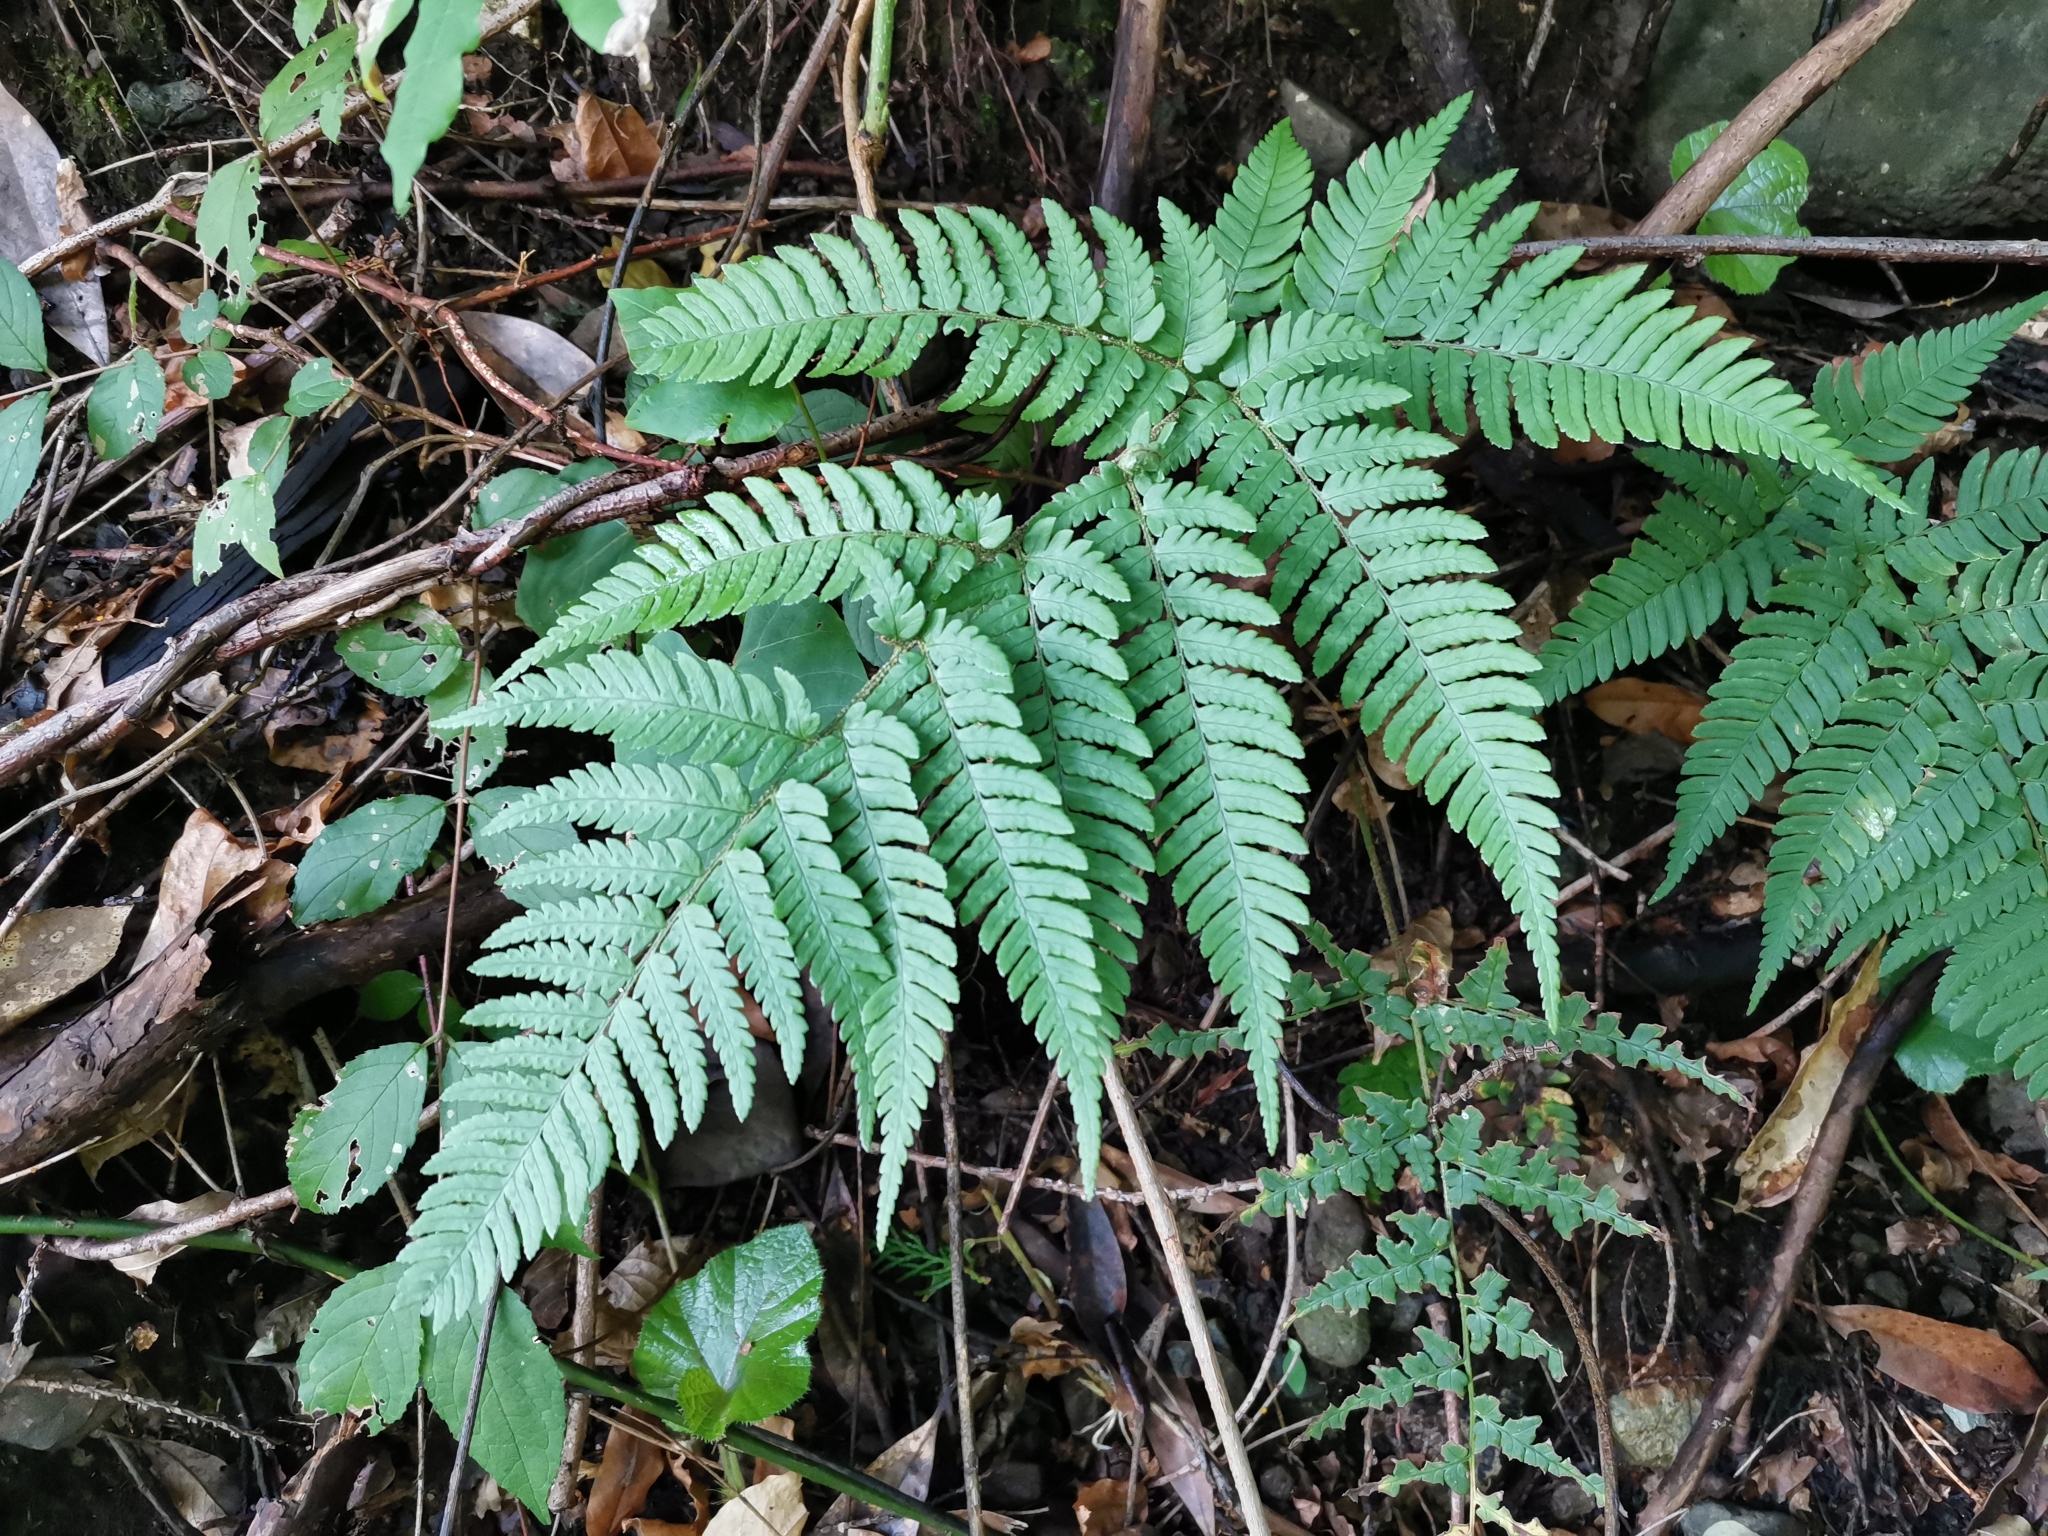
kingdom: Plantae
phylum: Tracheophyta
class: Polypodiopsida
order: Polypodiales
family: Dryopteridaceae
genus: Dryopteris
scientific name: Dryopteris immixta
